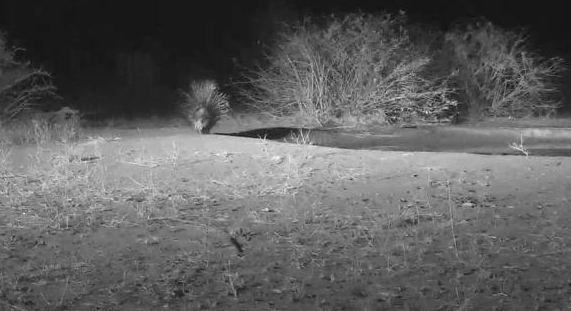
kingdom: Animalia
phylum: Chordata
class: Mammalia
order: Rodentia
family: Hystricidae
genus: Hystrix
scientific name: Hystrix africaeaustralis
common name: Cape porcupine
